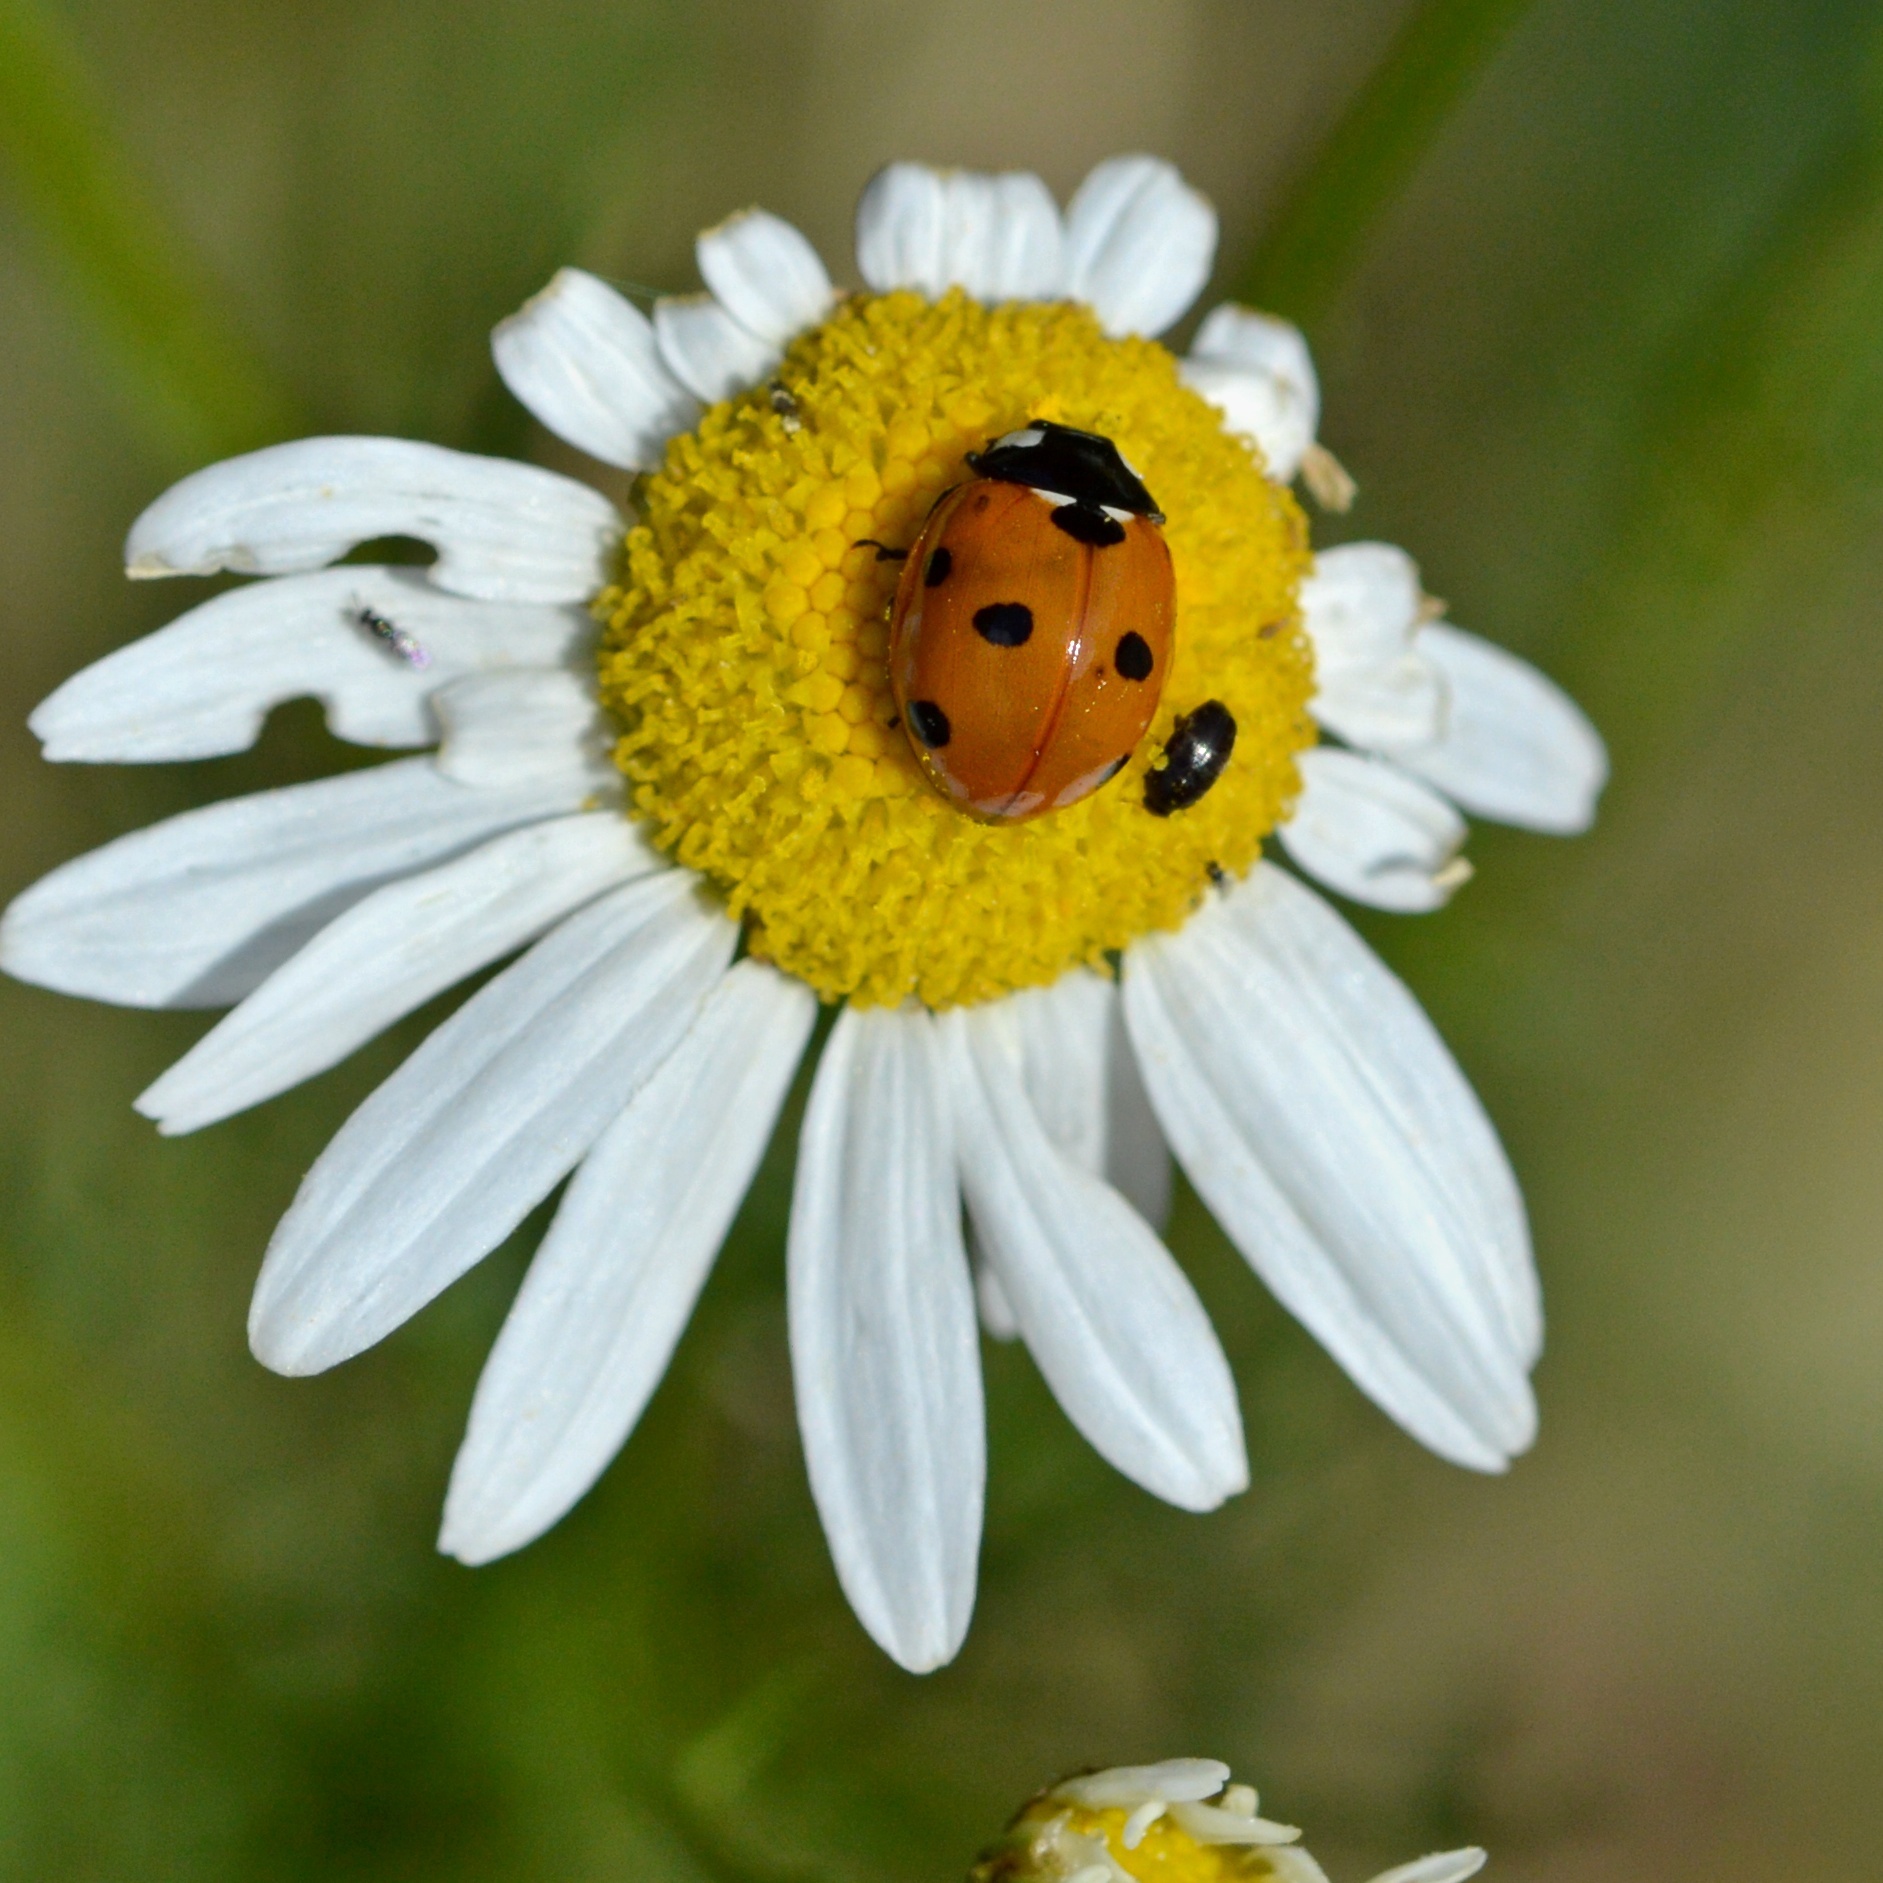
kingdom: Animalia
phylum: Arthropoda
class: Insecta
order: Coleoptera
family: Coccinellidae
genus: Coccinella
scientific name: Coccinella septempunctata
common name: Sevenspotted lady beetle
